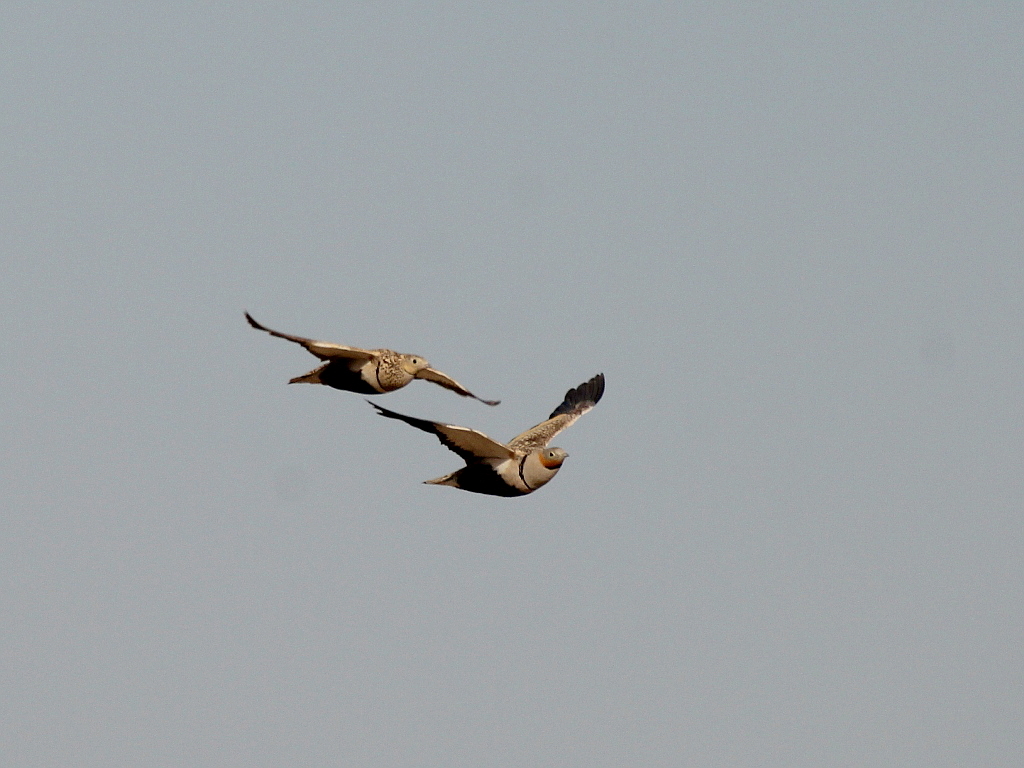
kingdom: Animalia
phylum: Chordata
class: Aves
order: Pteroclidiformes
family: Pteroclididae
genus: Pterocles
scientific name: Pterocles orientalis
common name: Black-bellied sandgrouse
